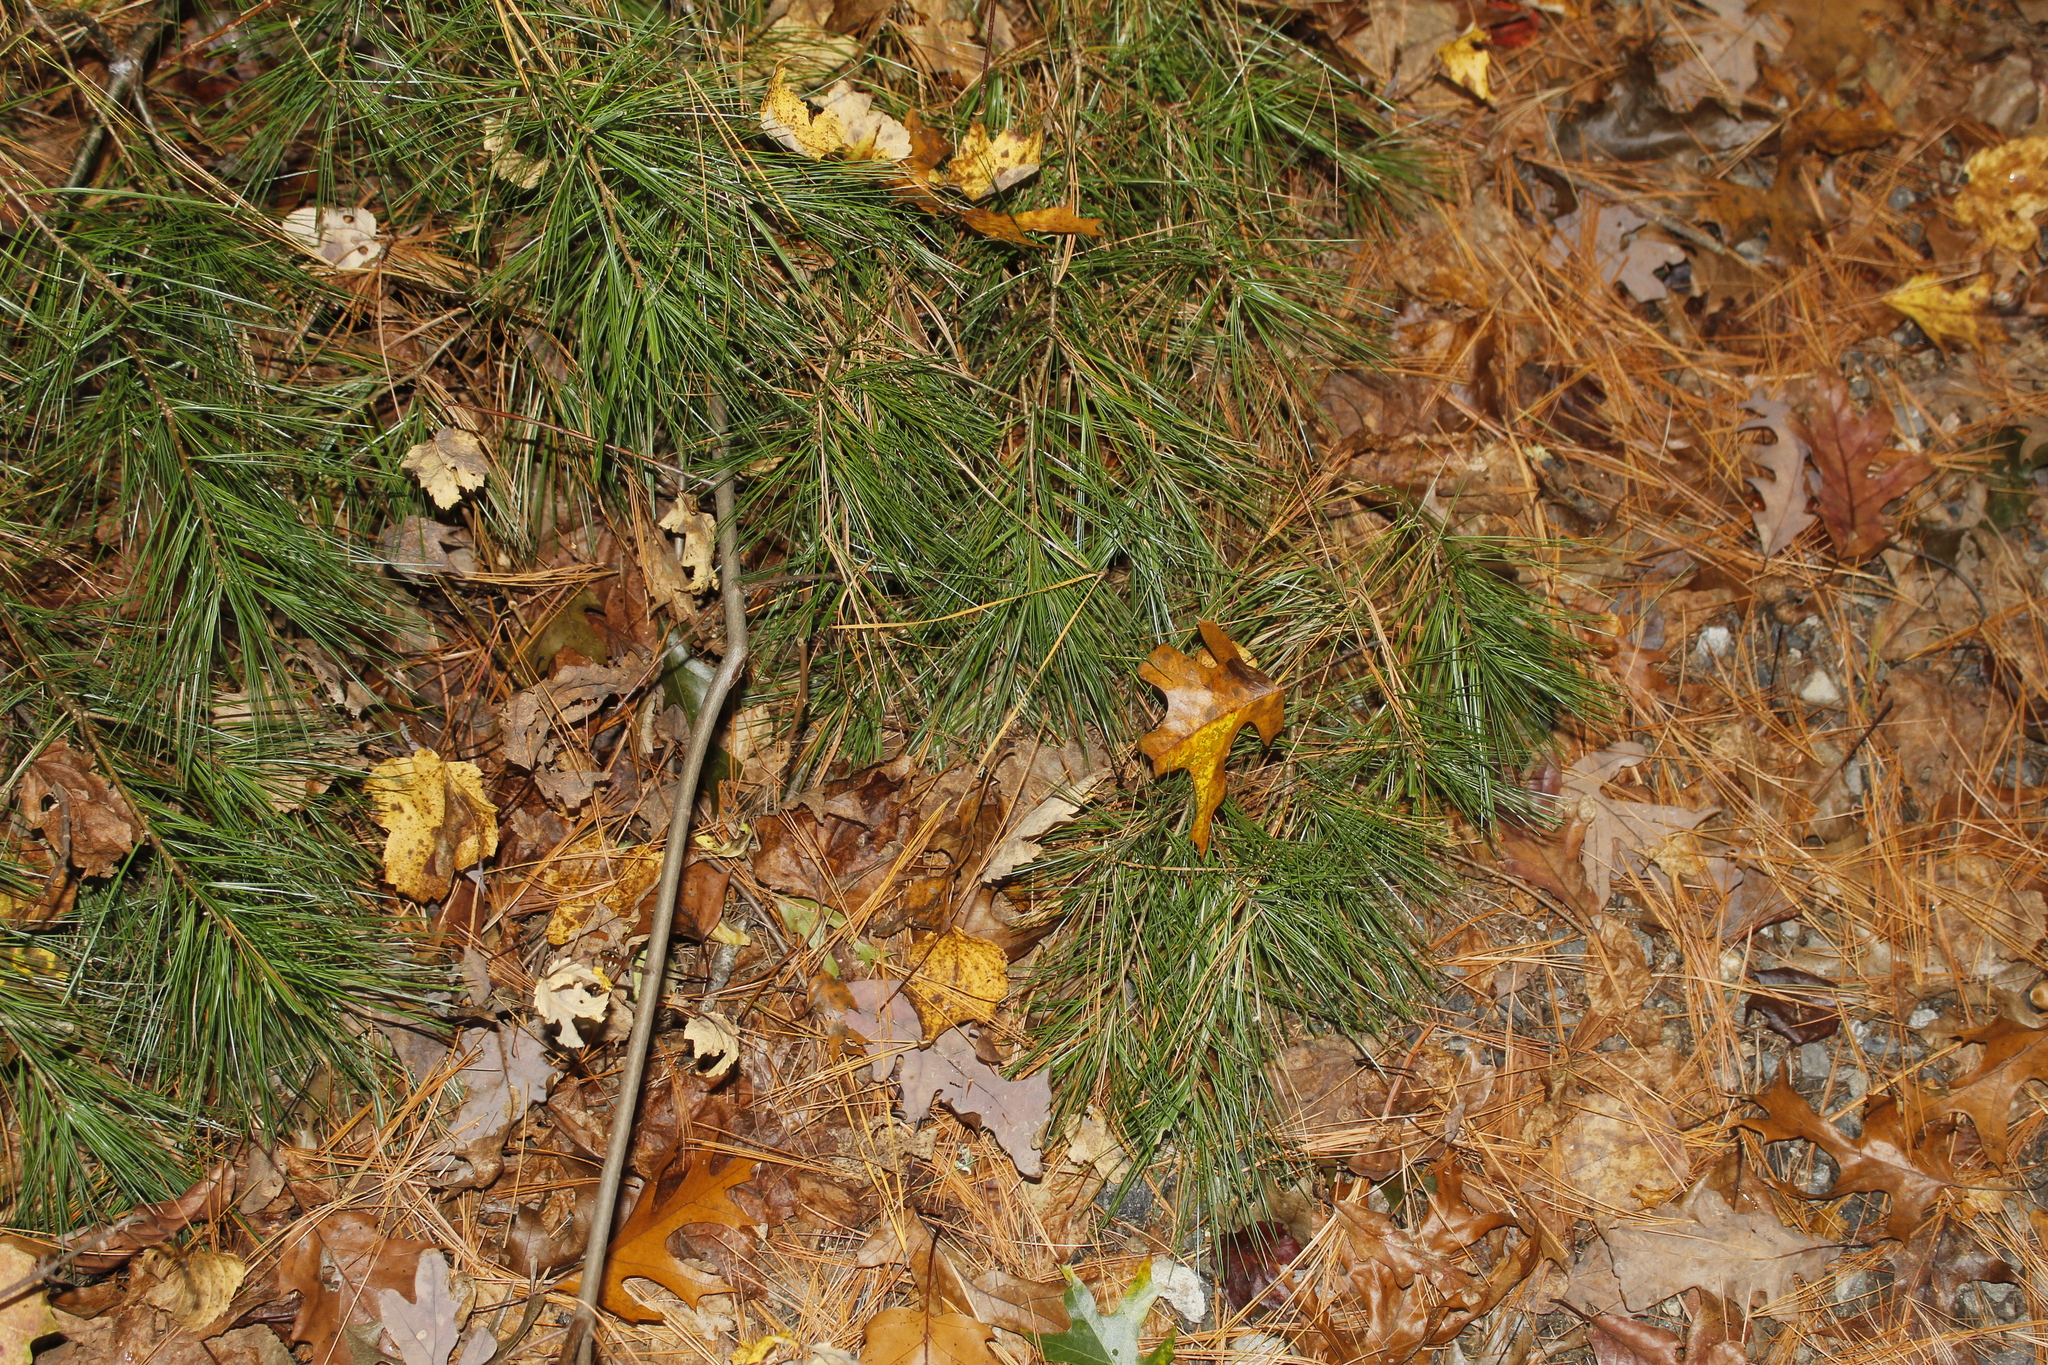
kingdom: Plantae
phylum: Tracheophyta
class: Pinopsida
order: Pinales
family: Pinaceae
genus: Pinus
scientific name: Pinus strobus
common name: Weymouth pine
